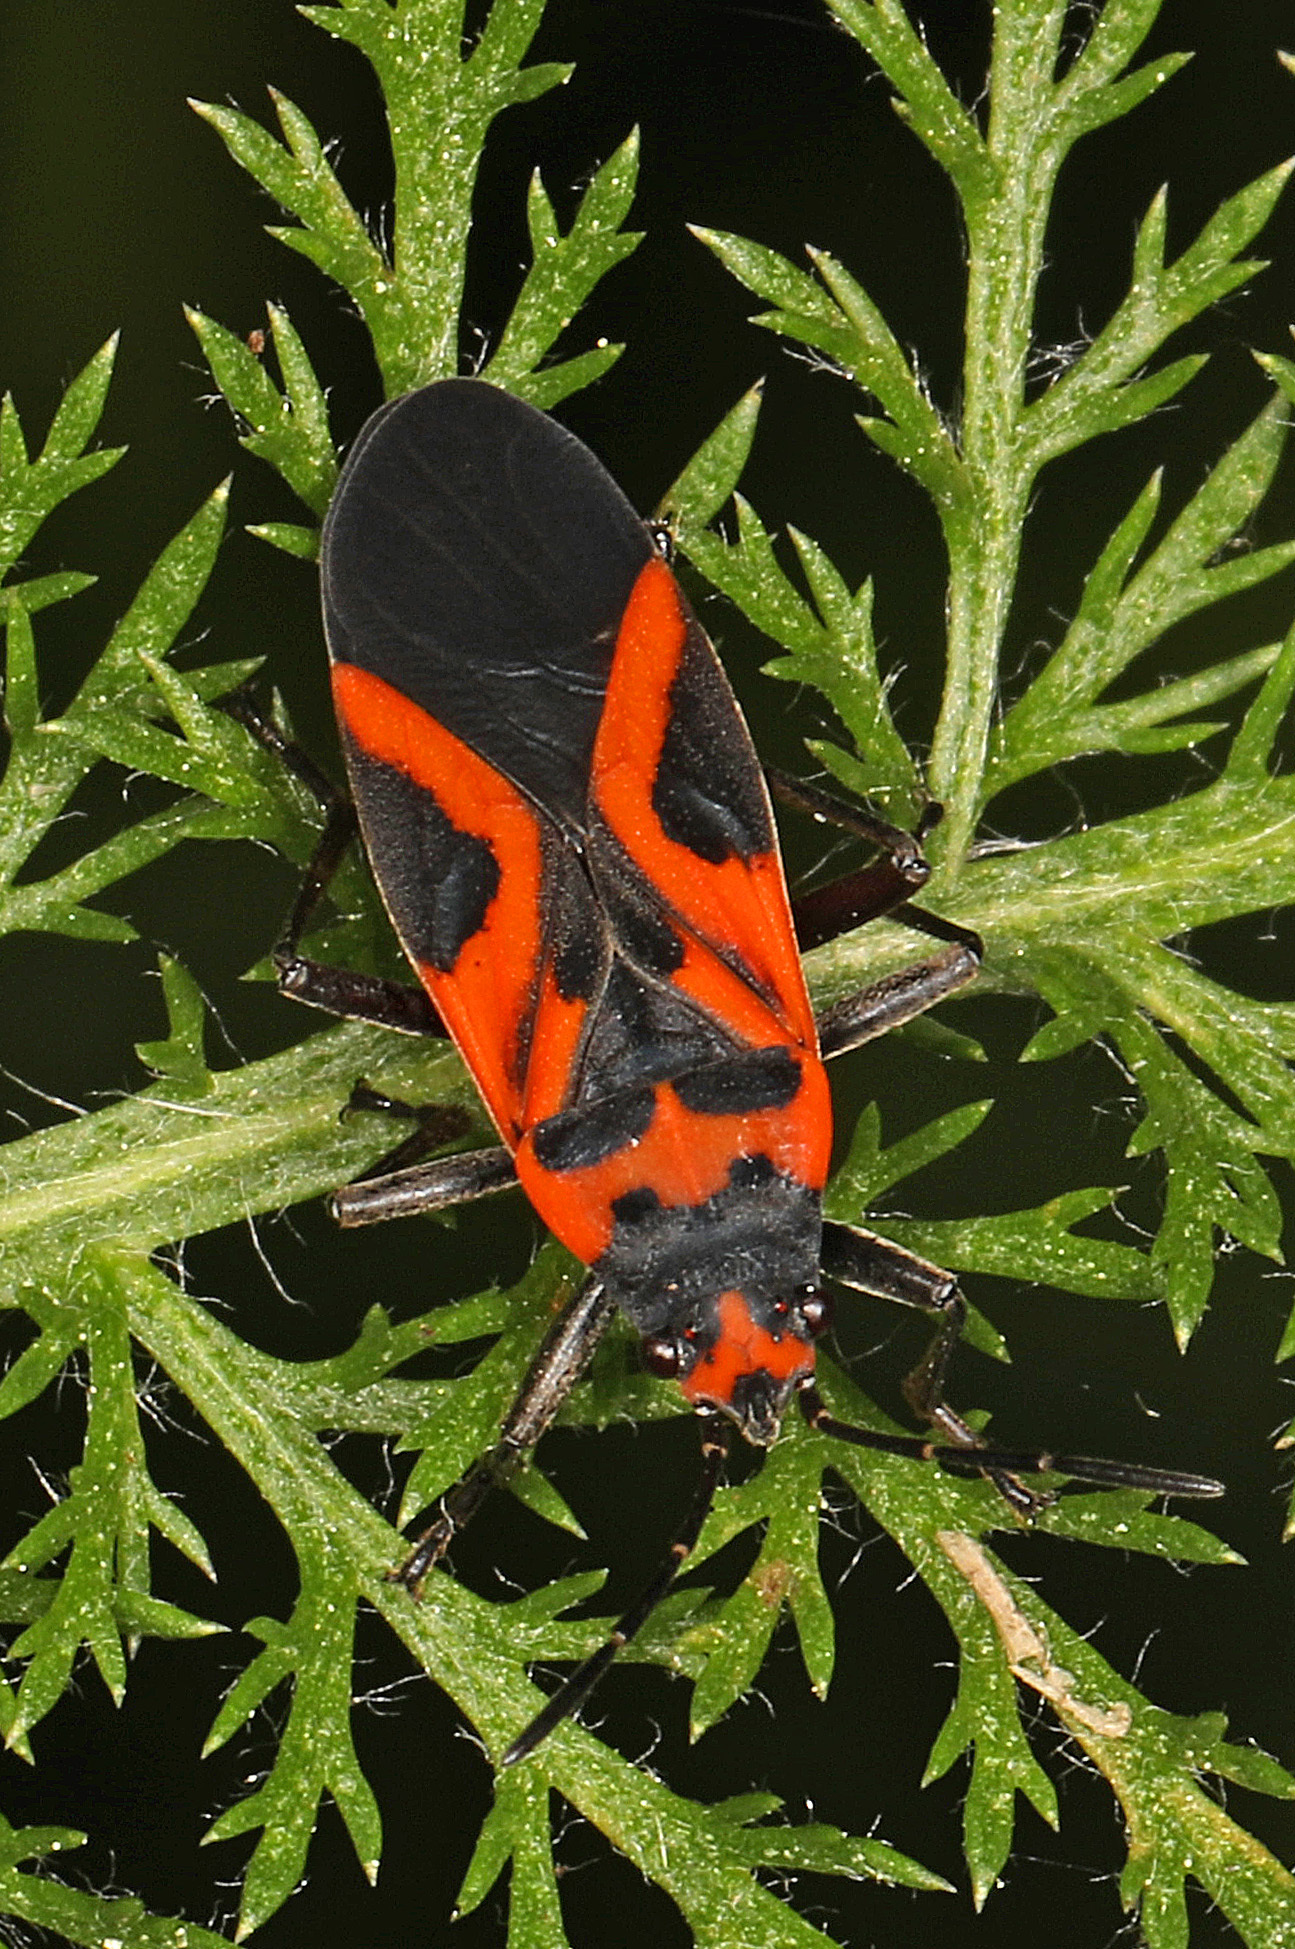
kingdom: Animalia
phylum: Arthropoda
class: Insecta
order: Hemiptera
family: Lygaeidae
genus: Lygaeus
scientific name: Lygaeus turcicus
